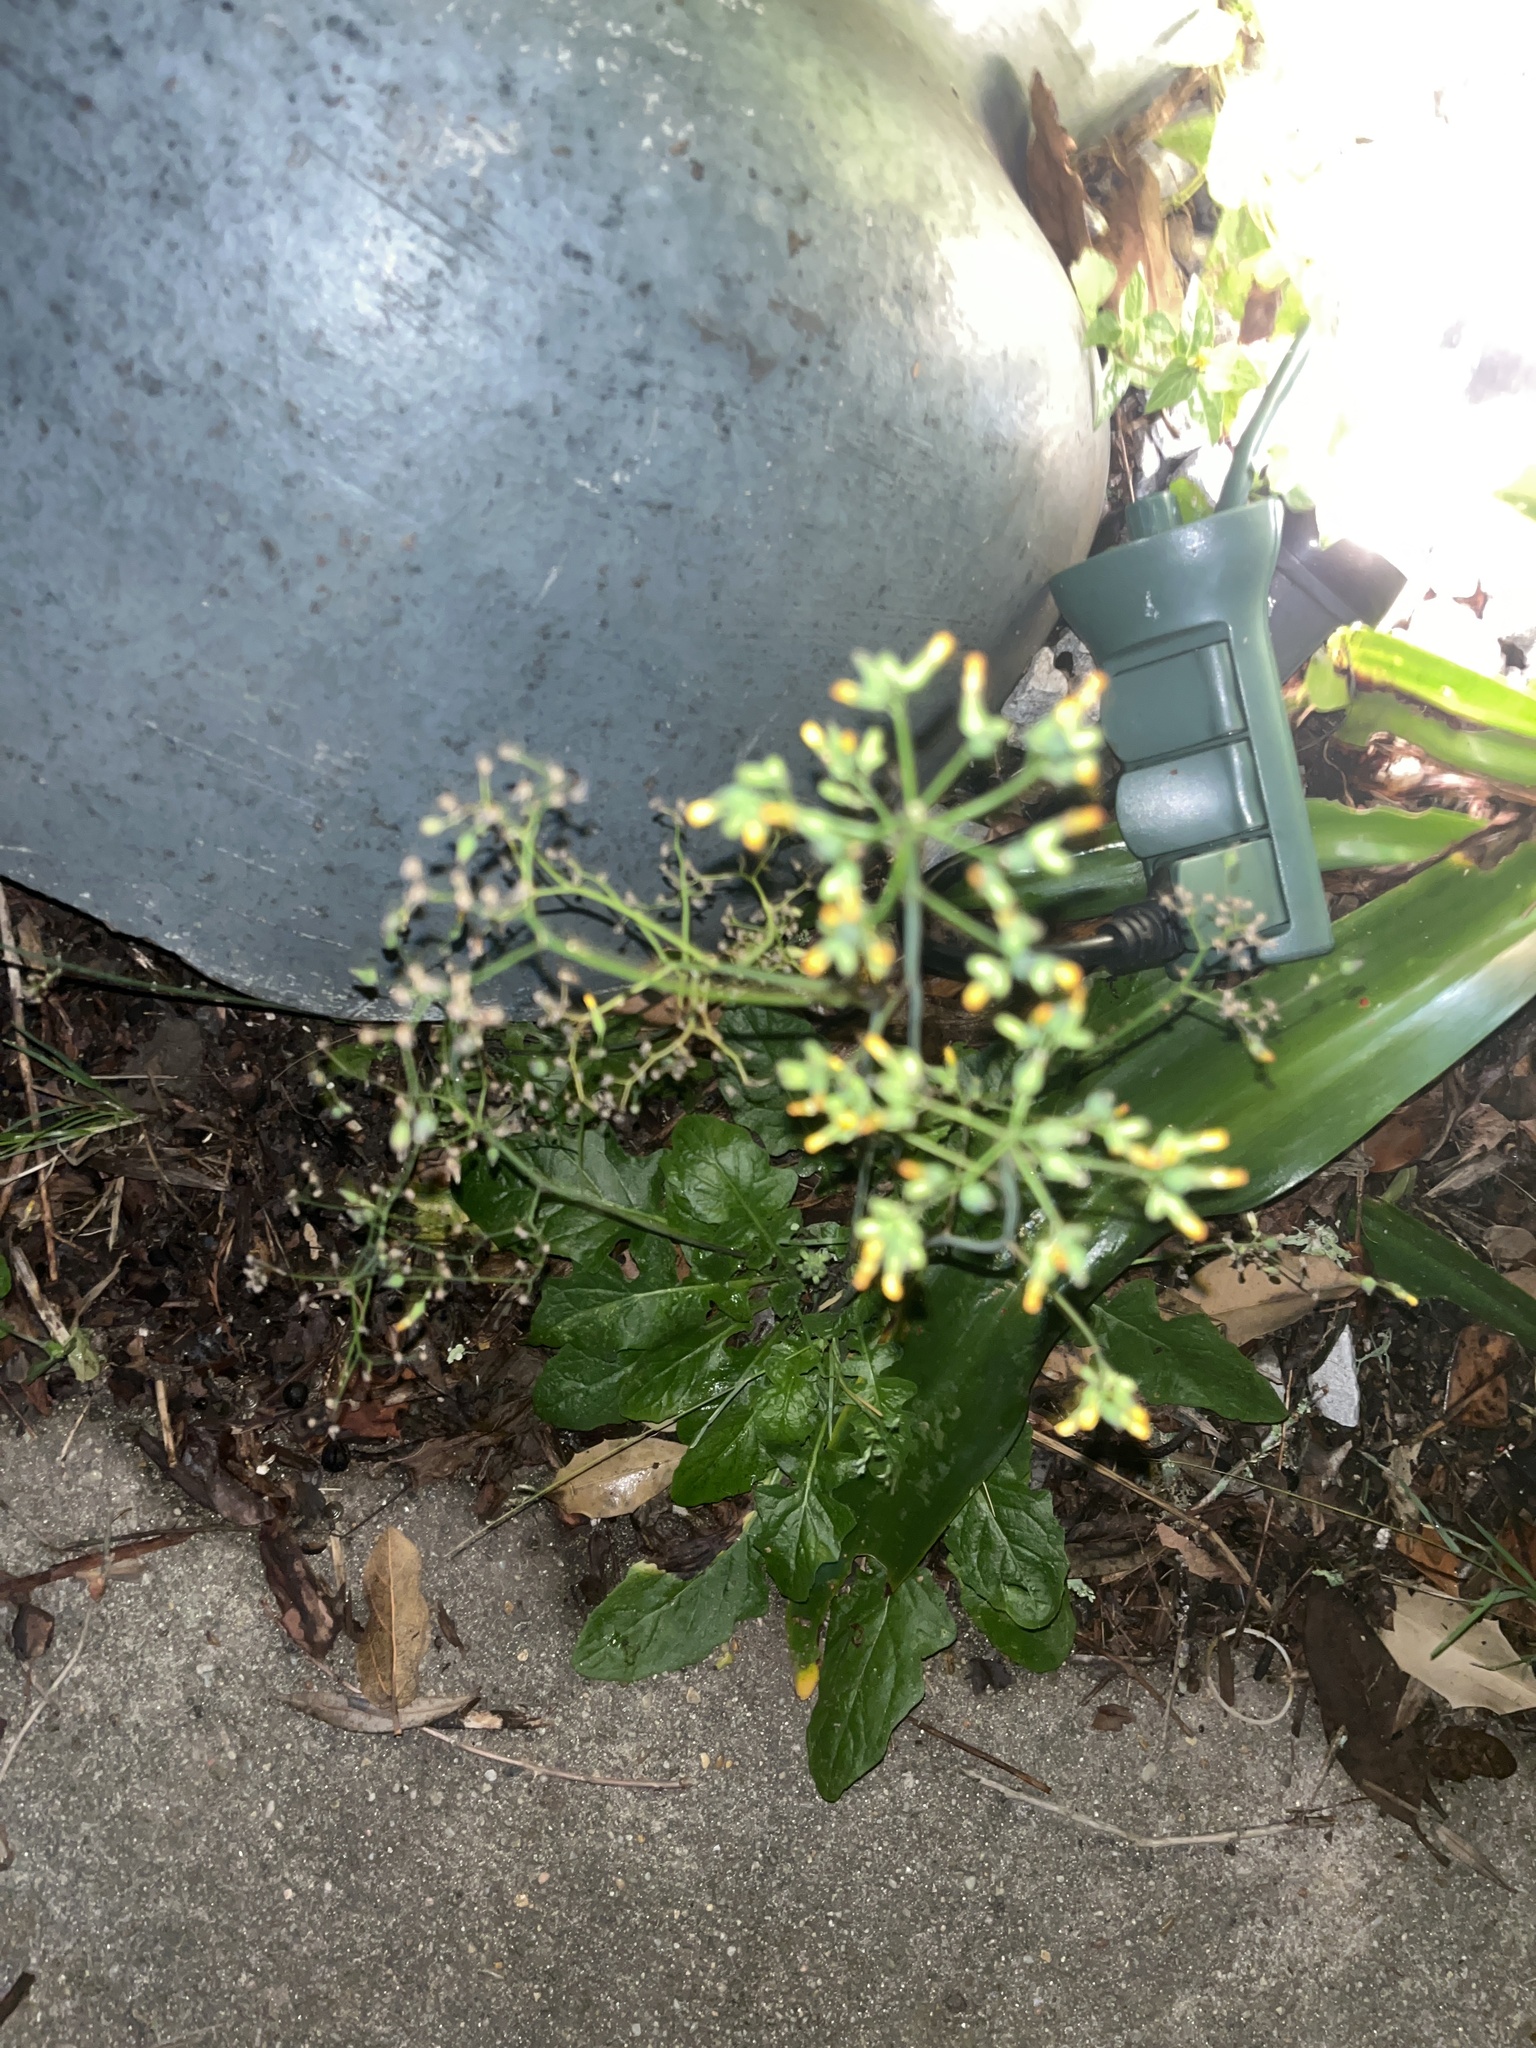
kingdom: Plantae
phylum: Tracheophyta
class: Magnoliopsida
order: Asterales
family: Asteraceae
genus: Youngia
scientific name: Youngia japonica
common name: Oriental false hawksbeard
